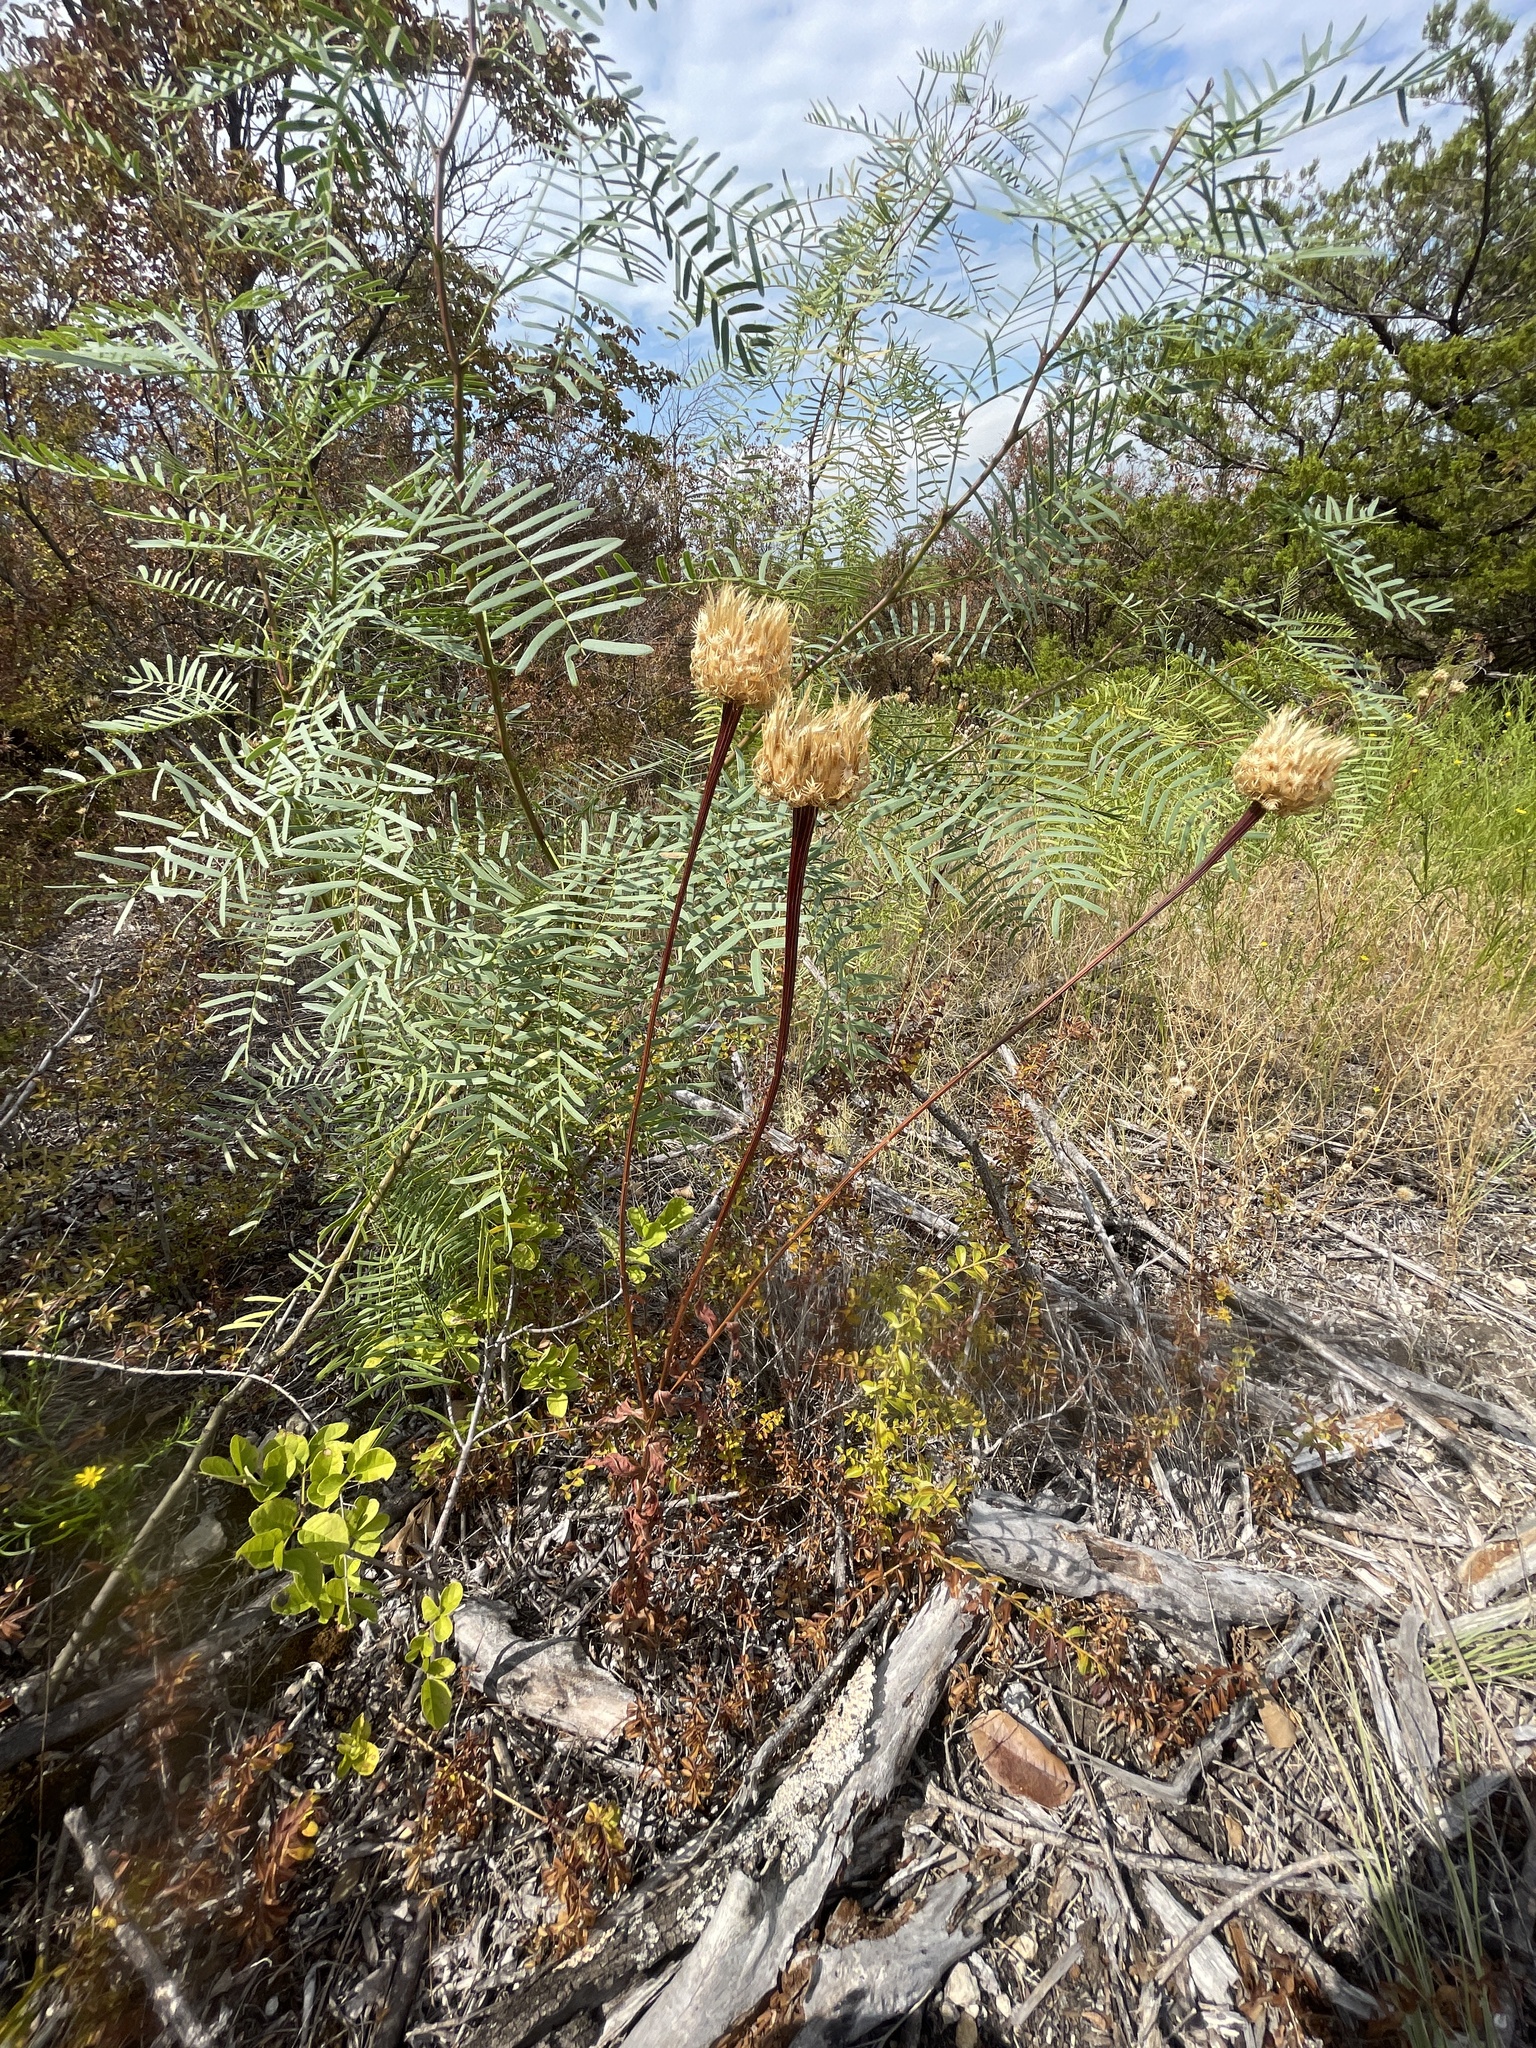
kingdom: Plantae
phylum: Tracheophyta
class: Magnoliopsida
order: Asterales
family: Asteraceae
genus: Plectocephalus
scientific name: Plectocephalus americanus
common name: American basket-flower
